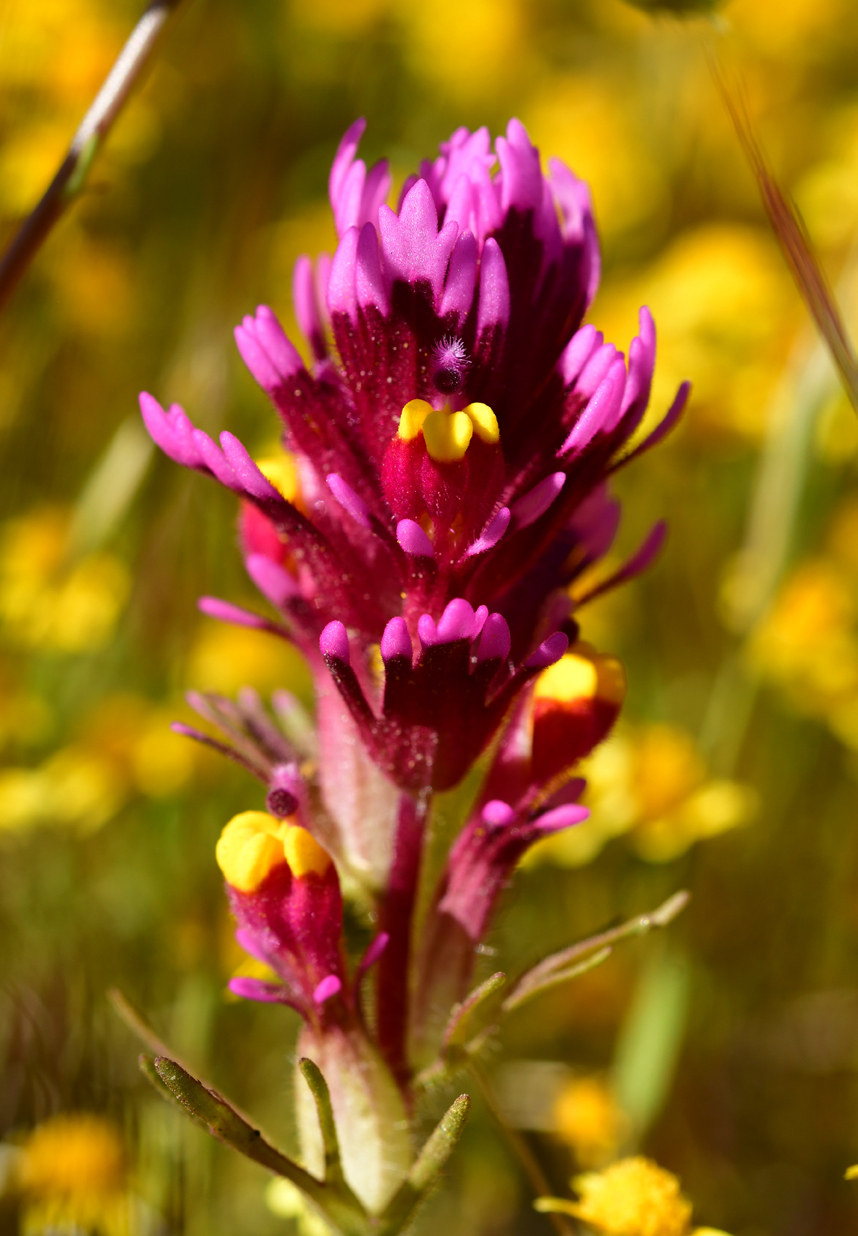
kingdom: Plantae
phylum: Tracheophyta
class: Magnoliopsida
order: Lamiales
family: Orobanchaceae
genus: Castilleja
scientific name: Castilleja exserta
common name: Purple owl-clover
